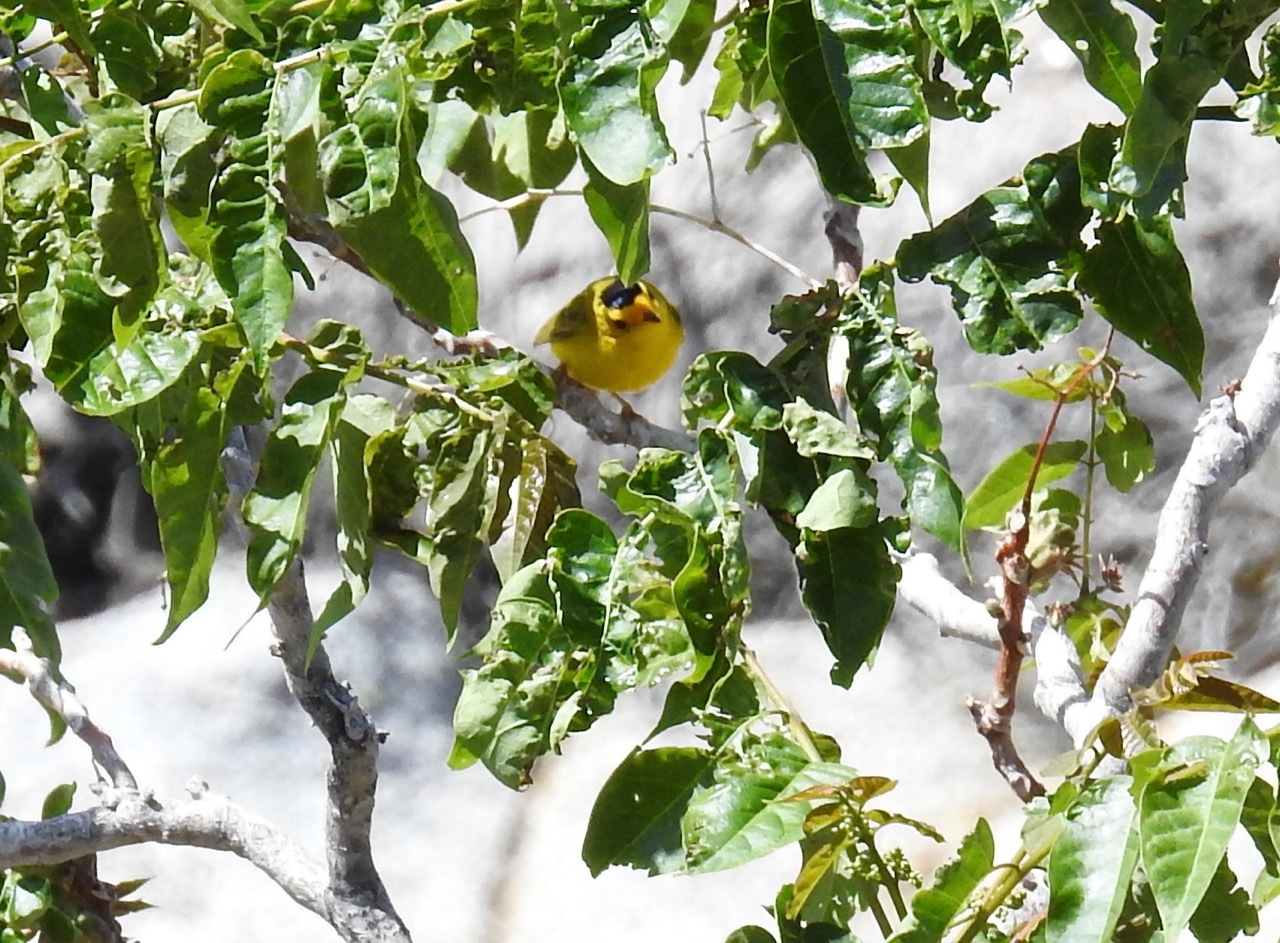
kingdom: Animalia
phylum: Chordata
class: Aves
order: Passeriformes
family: Parulidae
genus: Cardellina
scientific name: Cardellina pusilla
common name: Wilson's warbler
